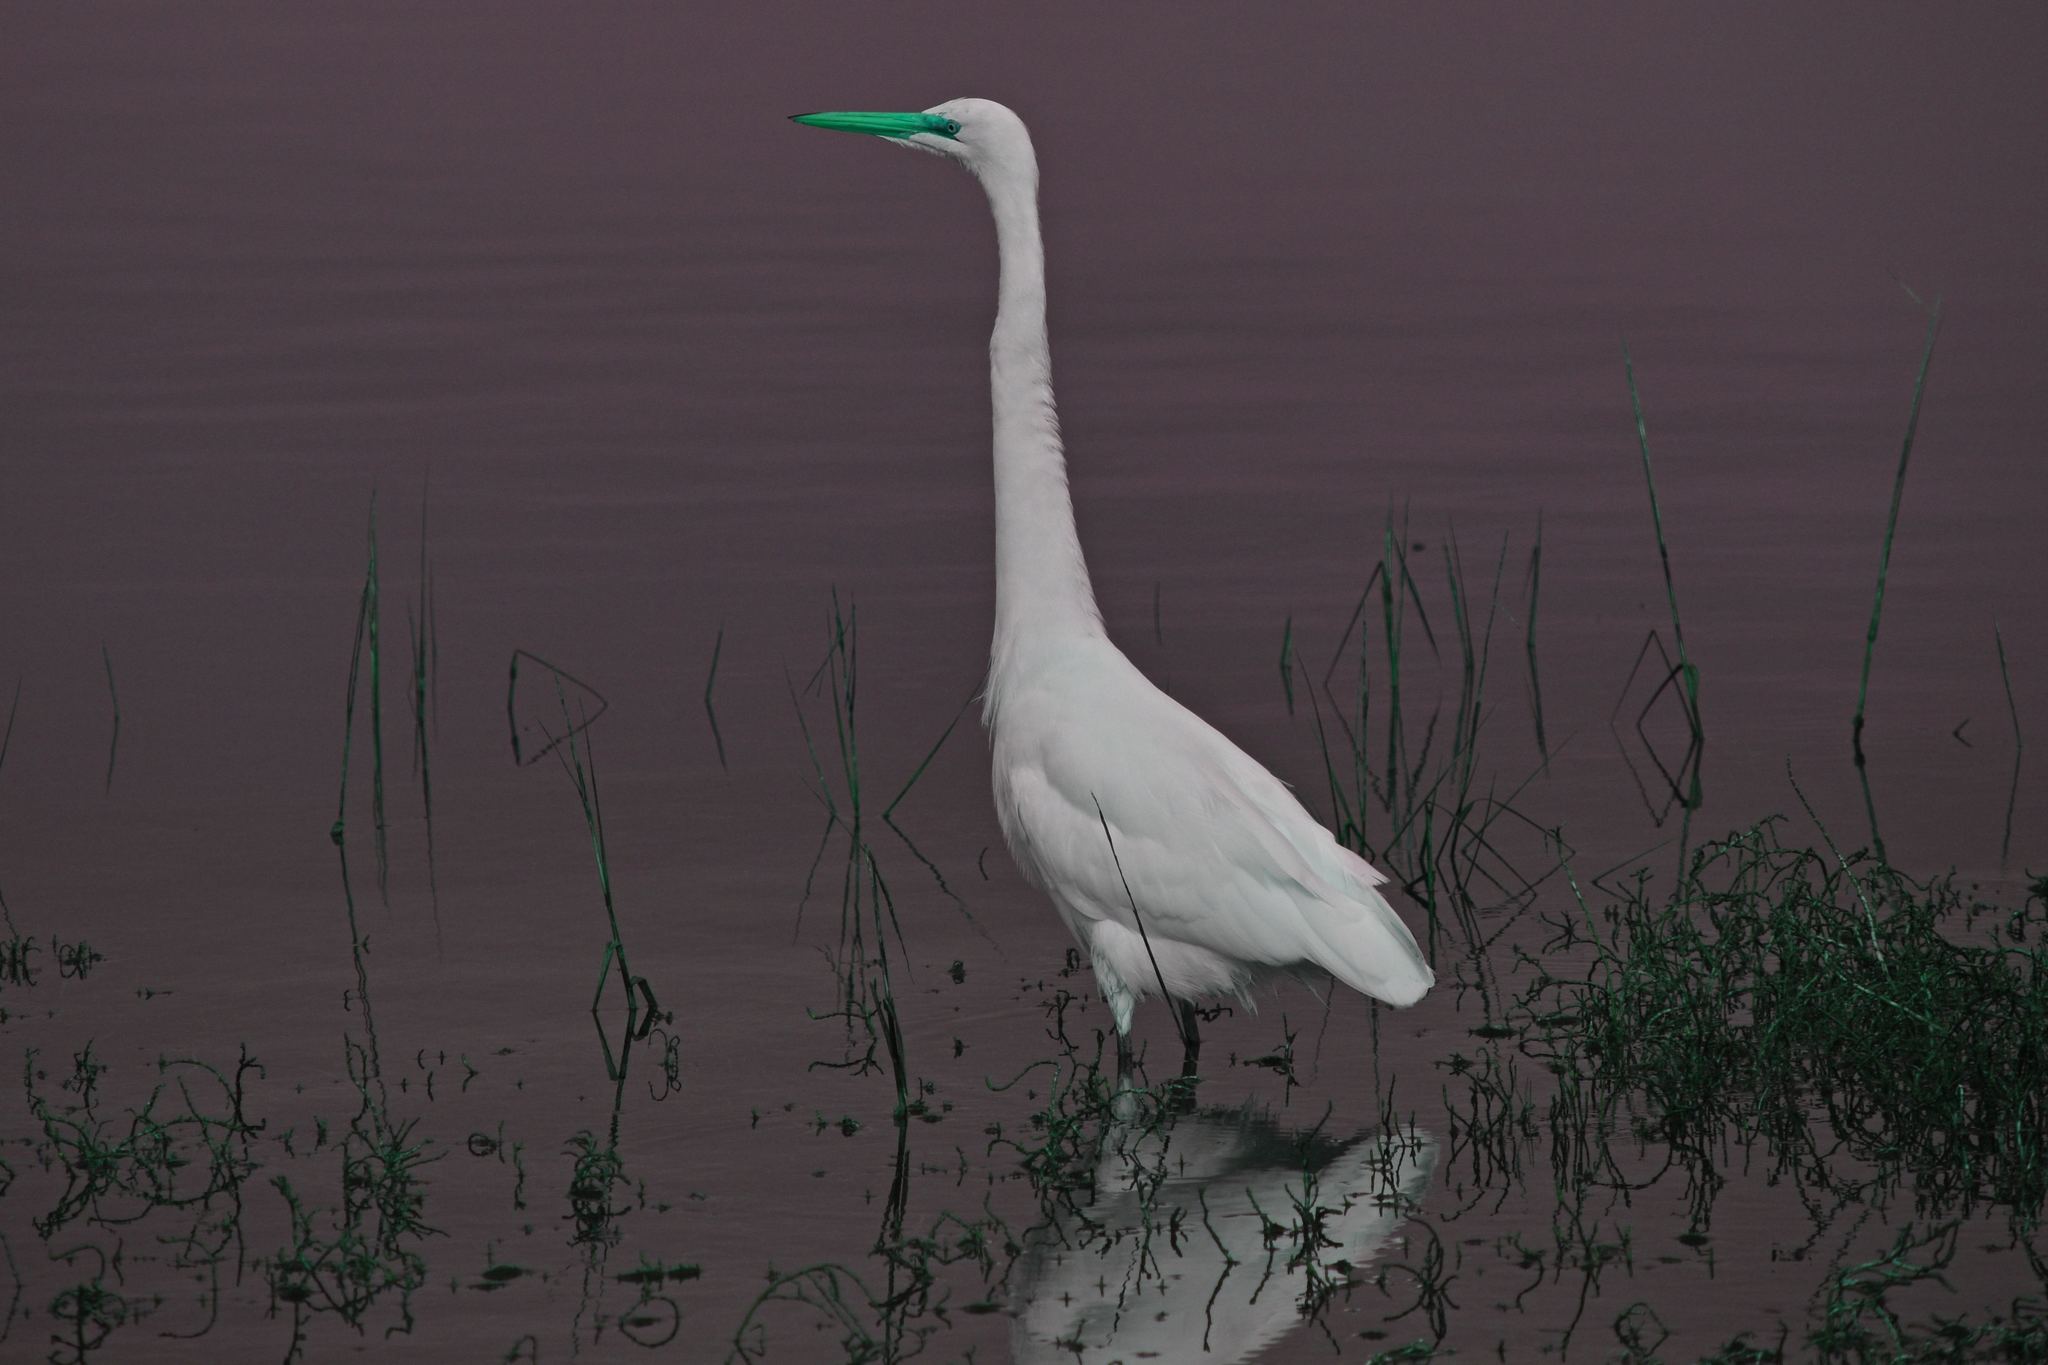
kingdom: Animalia
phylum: Chordata
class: Aves
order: Pelecaniformes
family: Ardeidae
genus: Ardea
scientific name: Ardea alba
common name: Great egret
